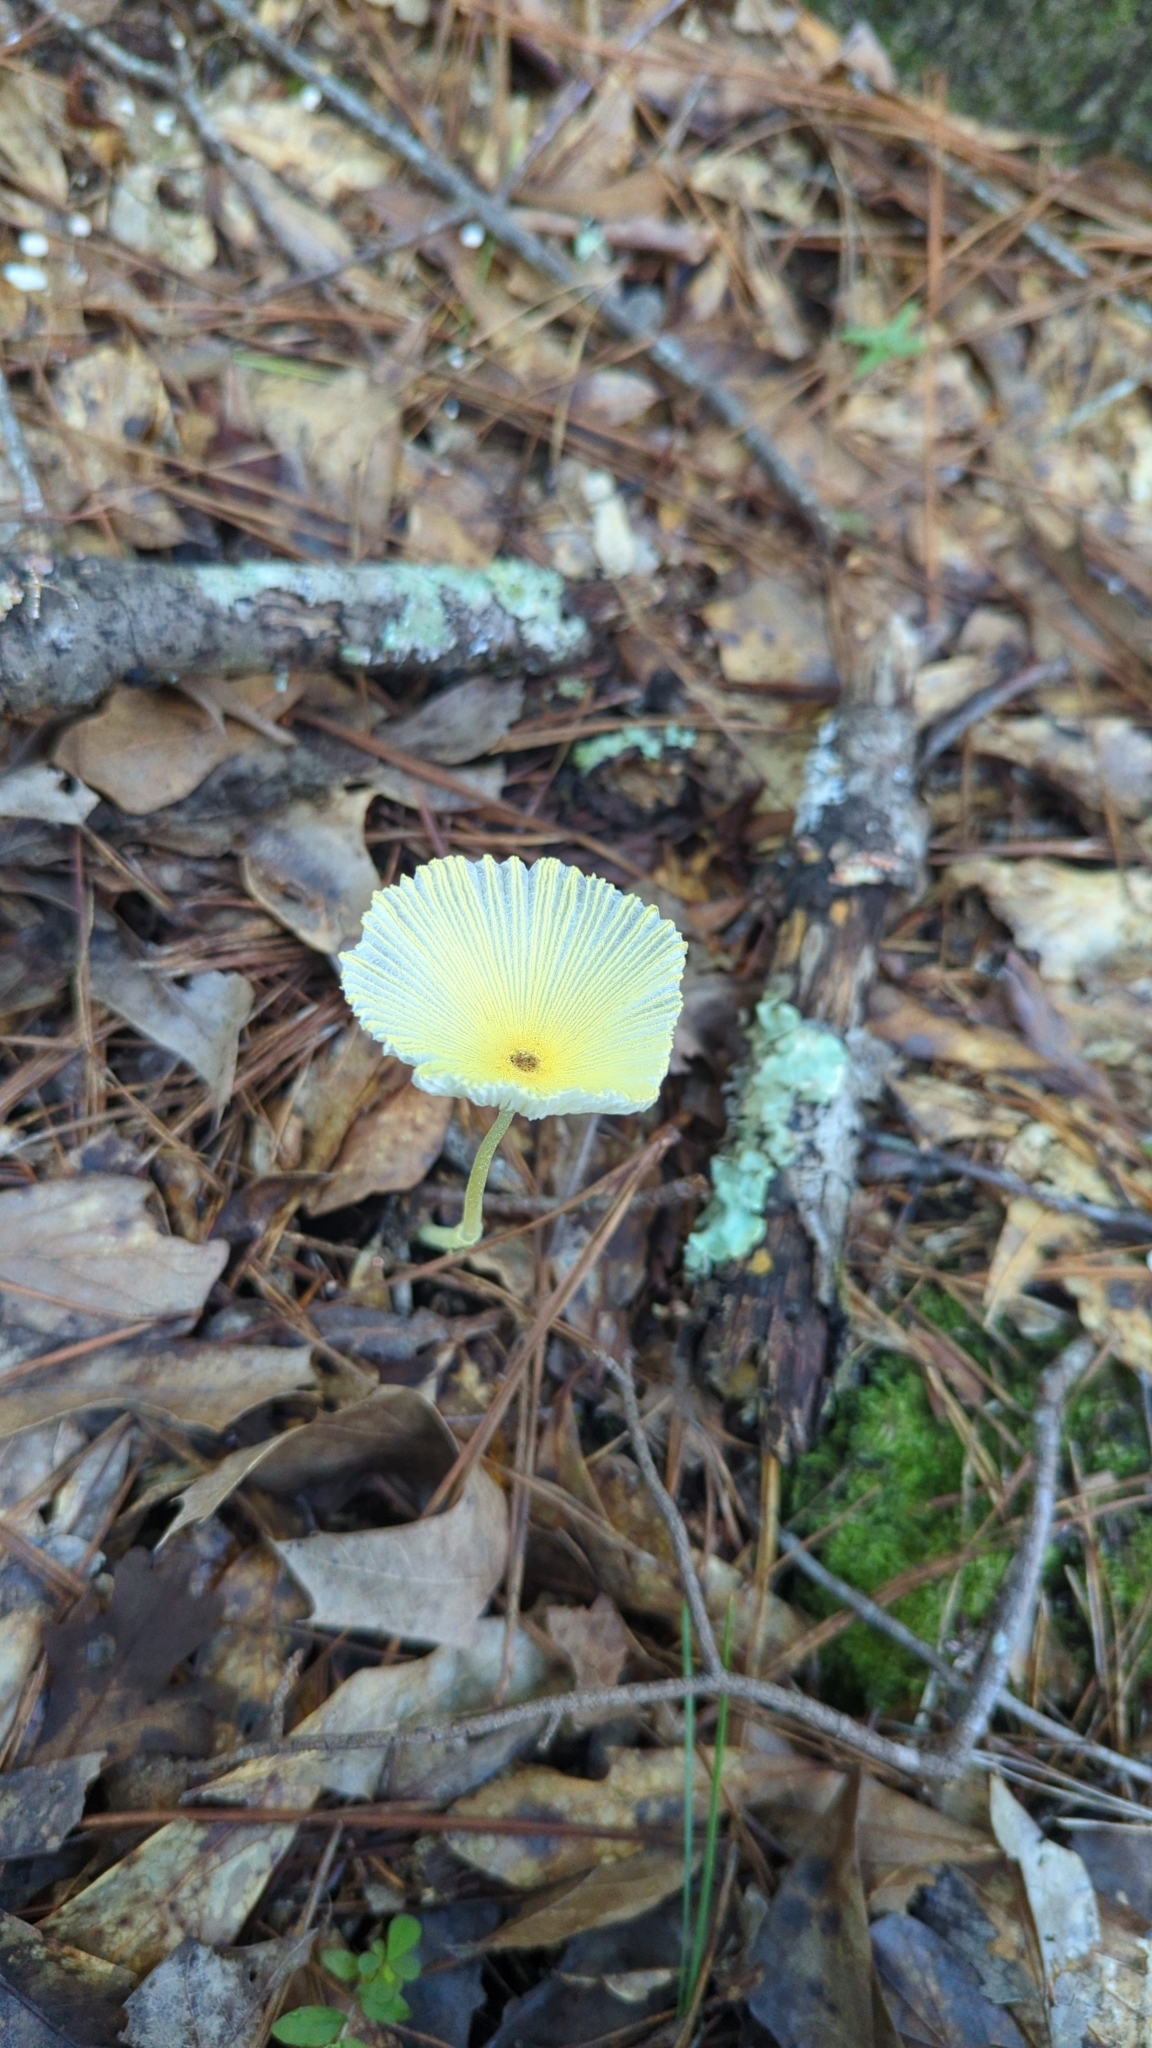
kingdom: Fungi
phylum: Basidiomycota
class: Agaricomycetes
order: Agaricales
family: Agaricaceae
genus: Leucocoprinus
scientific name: Leucocoprinus fragilissimus
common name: Fragile dapperling
